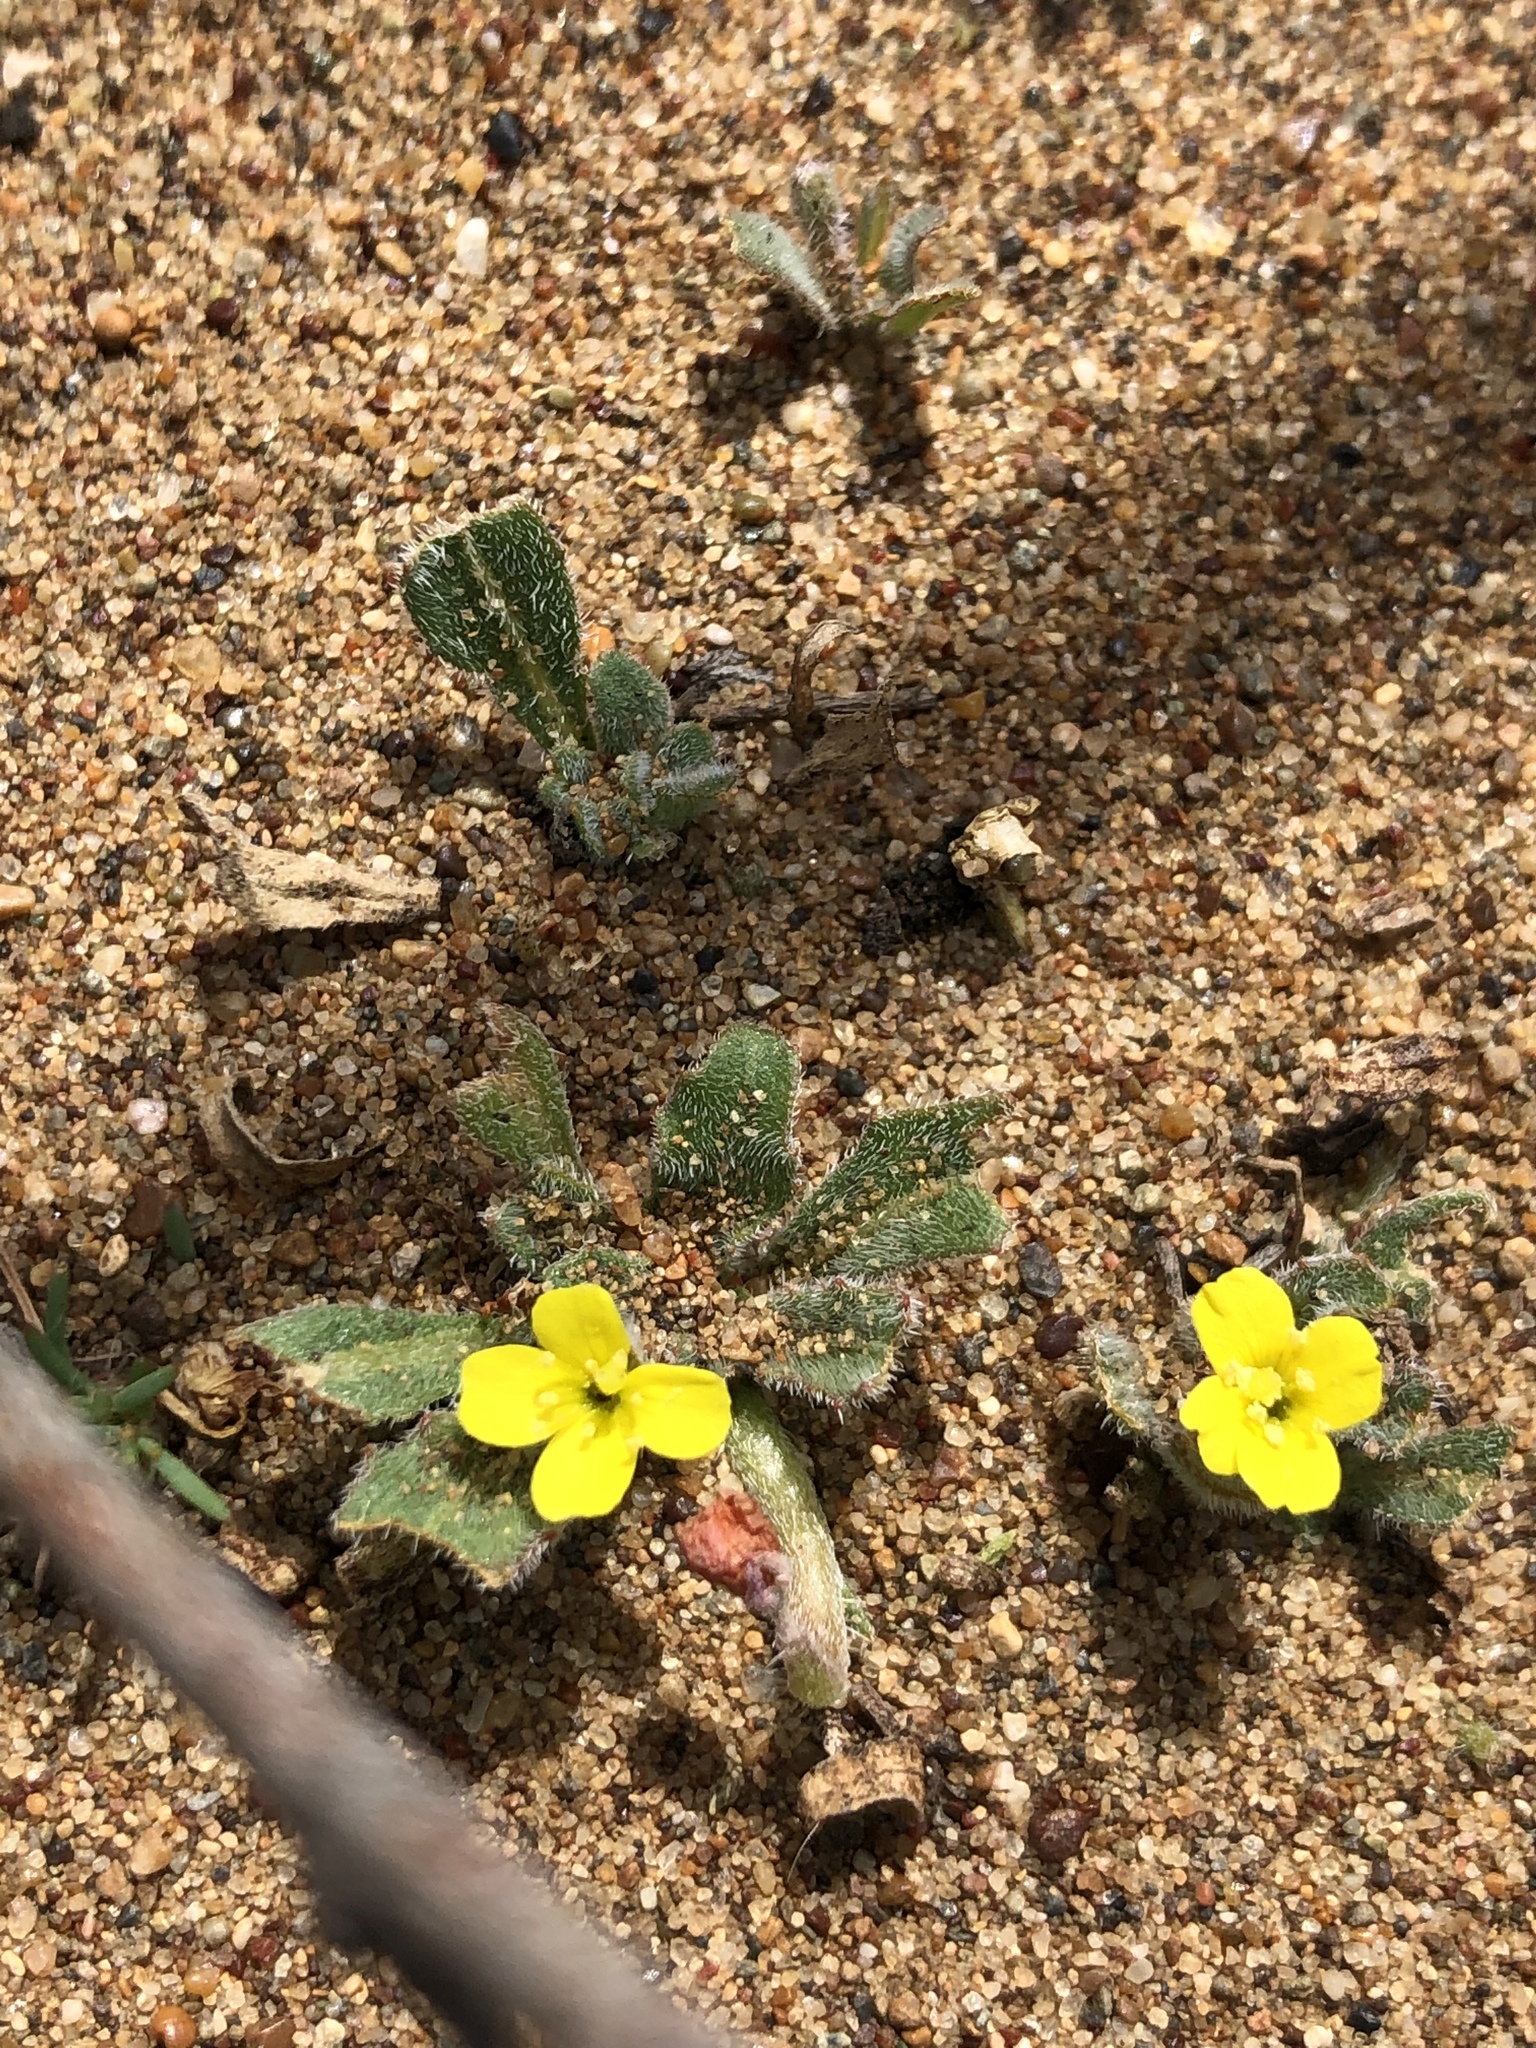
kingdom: Plantae
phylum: Tracheophyta
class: Magnoliopsida
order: Myrtales
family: Onagraceae
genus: Camissoniopsis
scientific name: Camissoniopsis micrantha
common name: Miniature suncup
